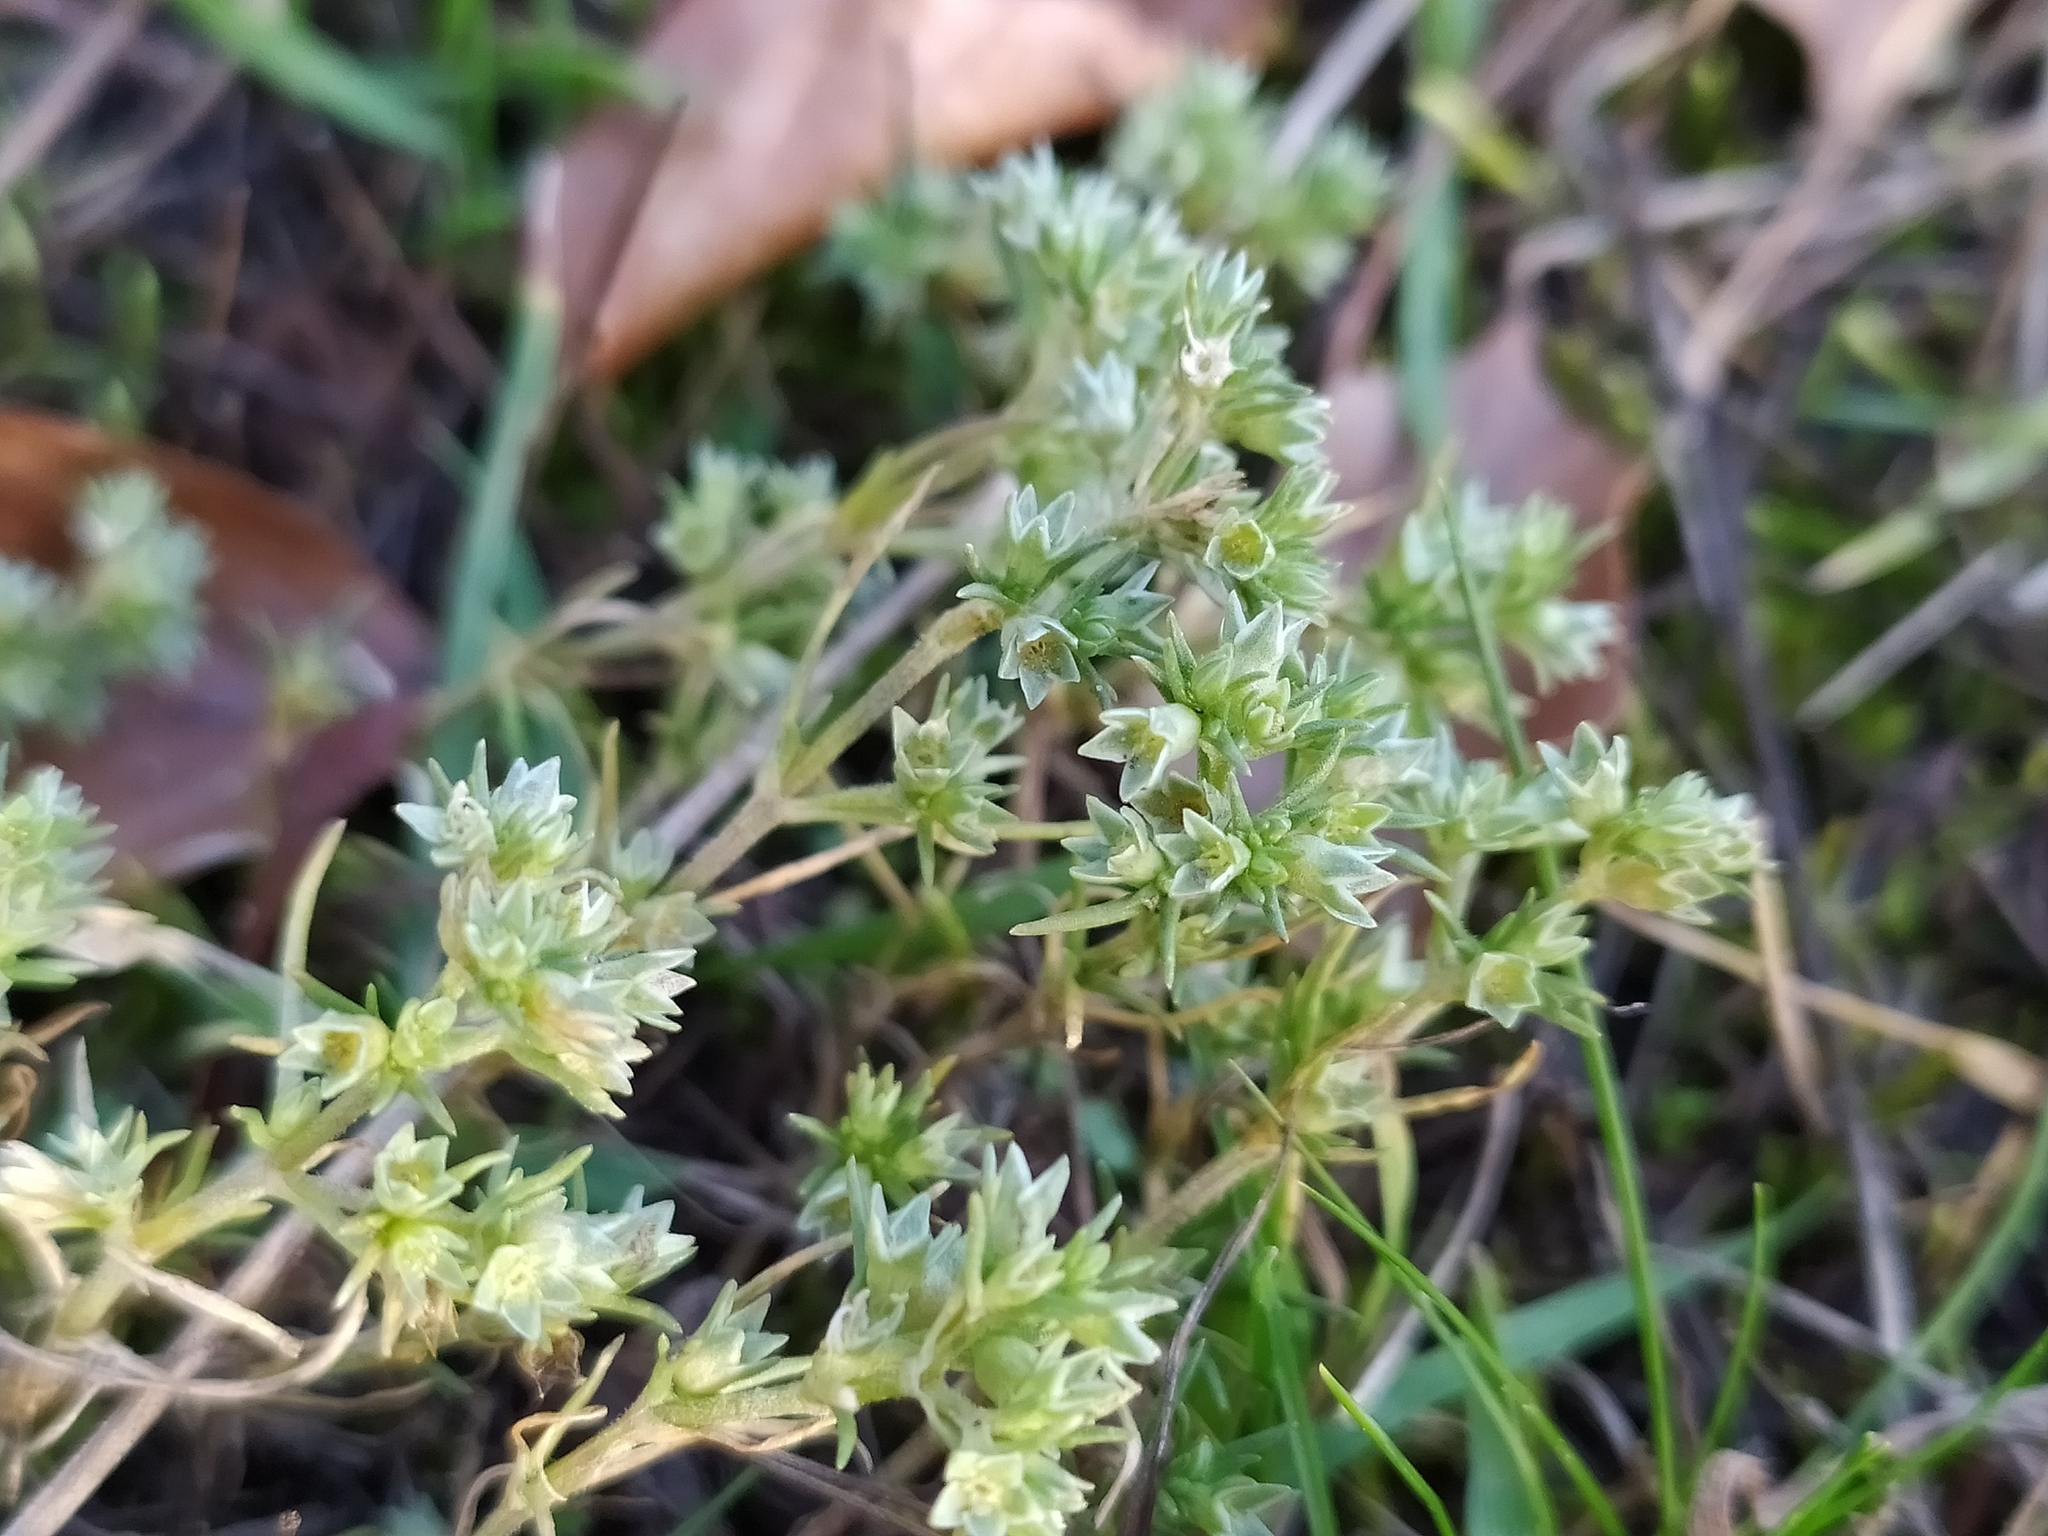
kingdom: Plantae
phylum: Tracheophyta
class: Magnoliopsida
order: Caryophyllales
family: Caryophyllaceae
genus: Scleranthus
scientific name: Scleranthus annuus
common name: Annual knawel
